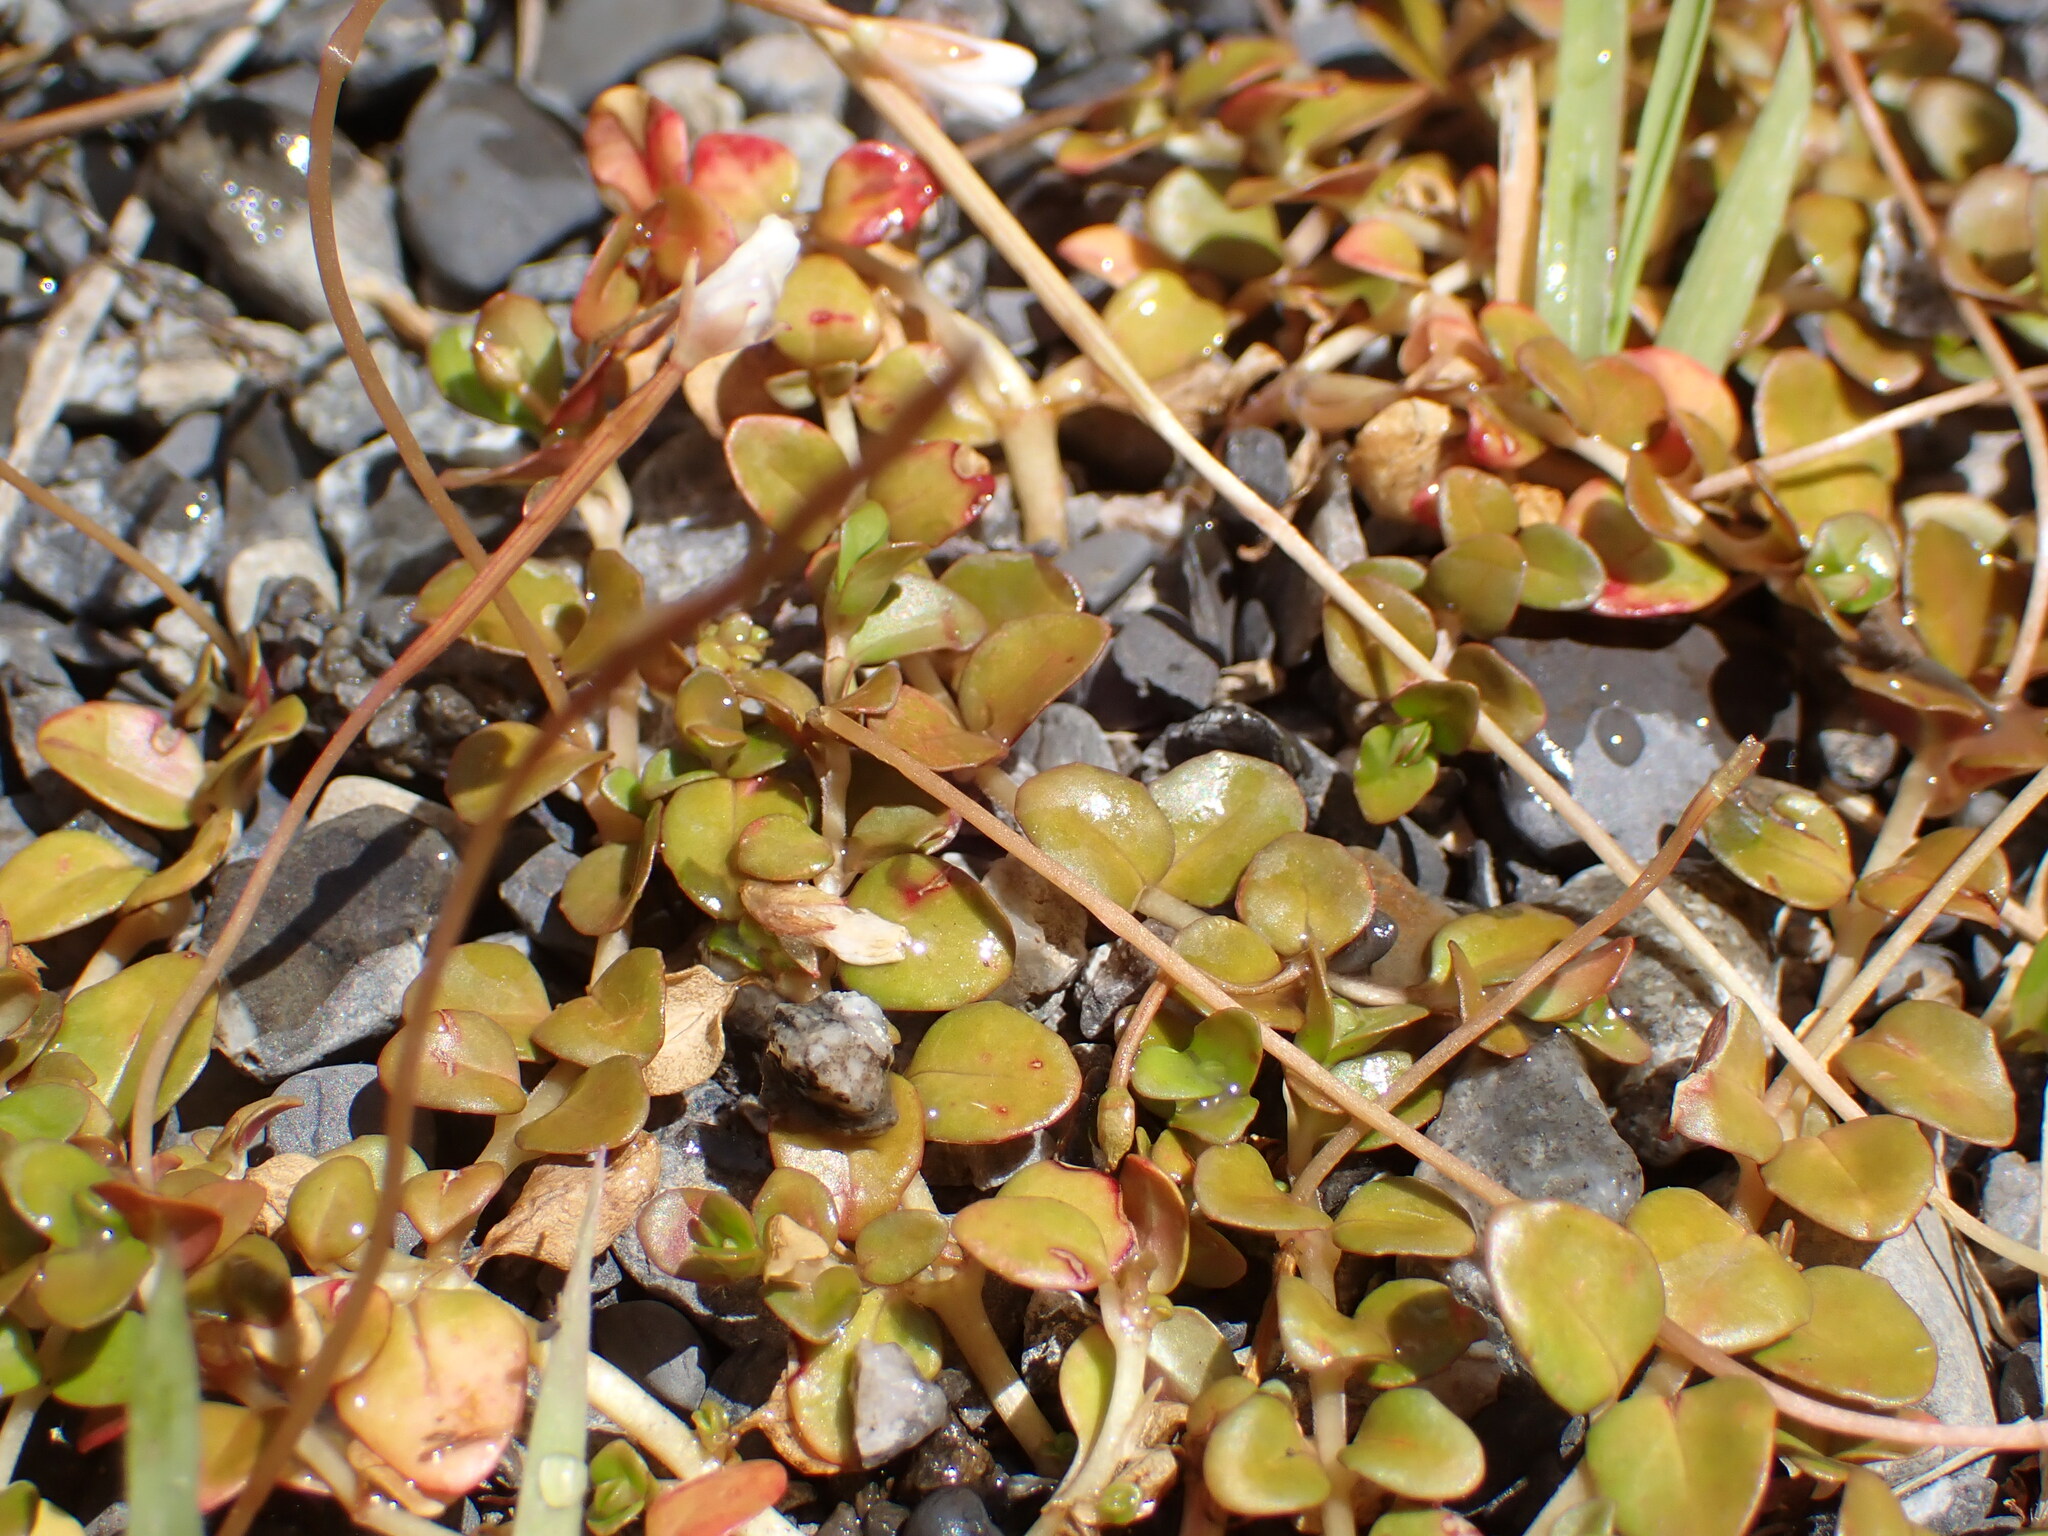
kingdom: Plantae
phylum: Tracheophyta
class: Magnoliopsida
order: Myrtales
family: Onagraceae
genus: Epilobium
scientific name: Epilobium brunnescens
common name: New zealand willowherb
